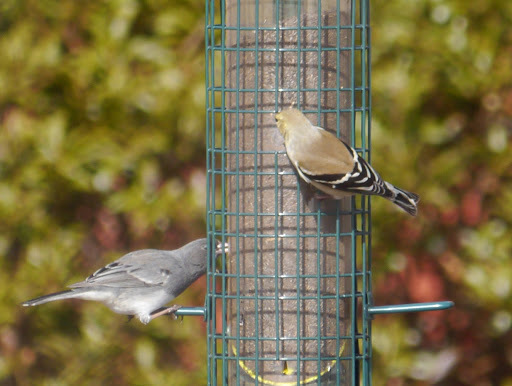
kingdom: Animalia
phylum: Chordata
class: Aves
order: Passeriformes
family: Fringillidae
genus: Spinus
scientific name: Spinus tristis
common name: American goldfinch
